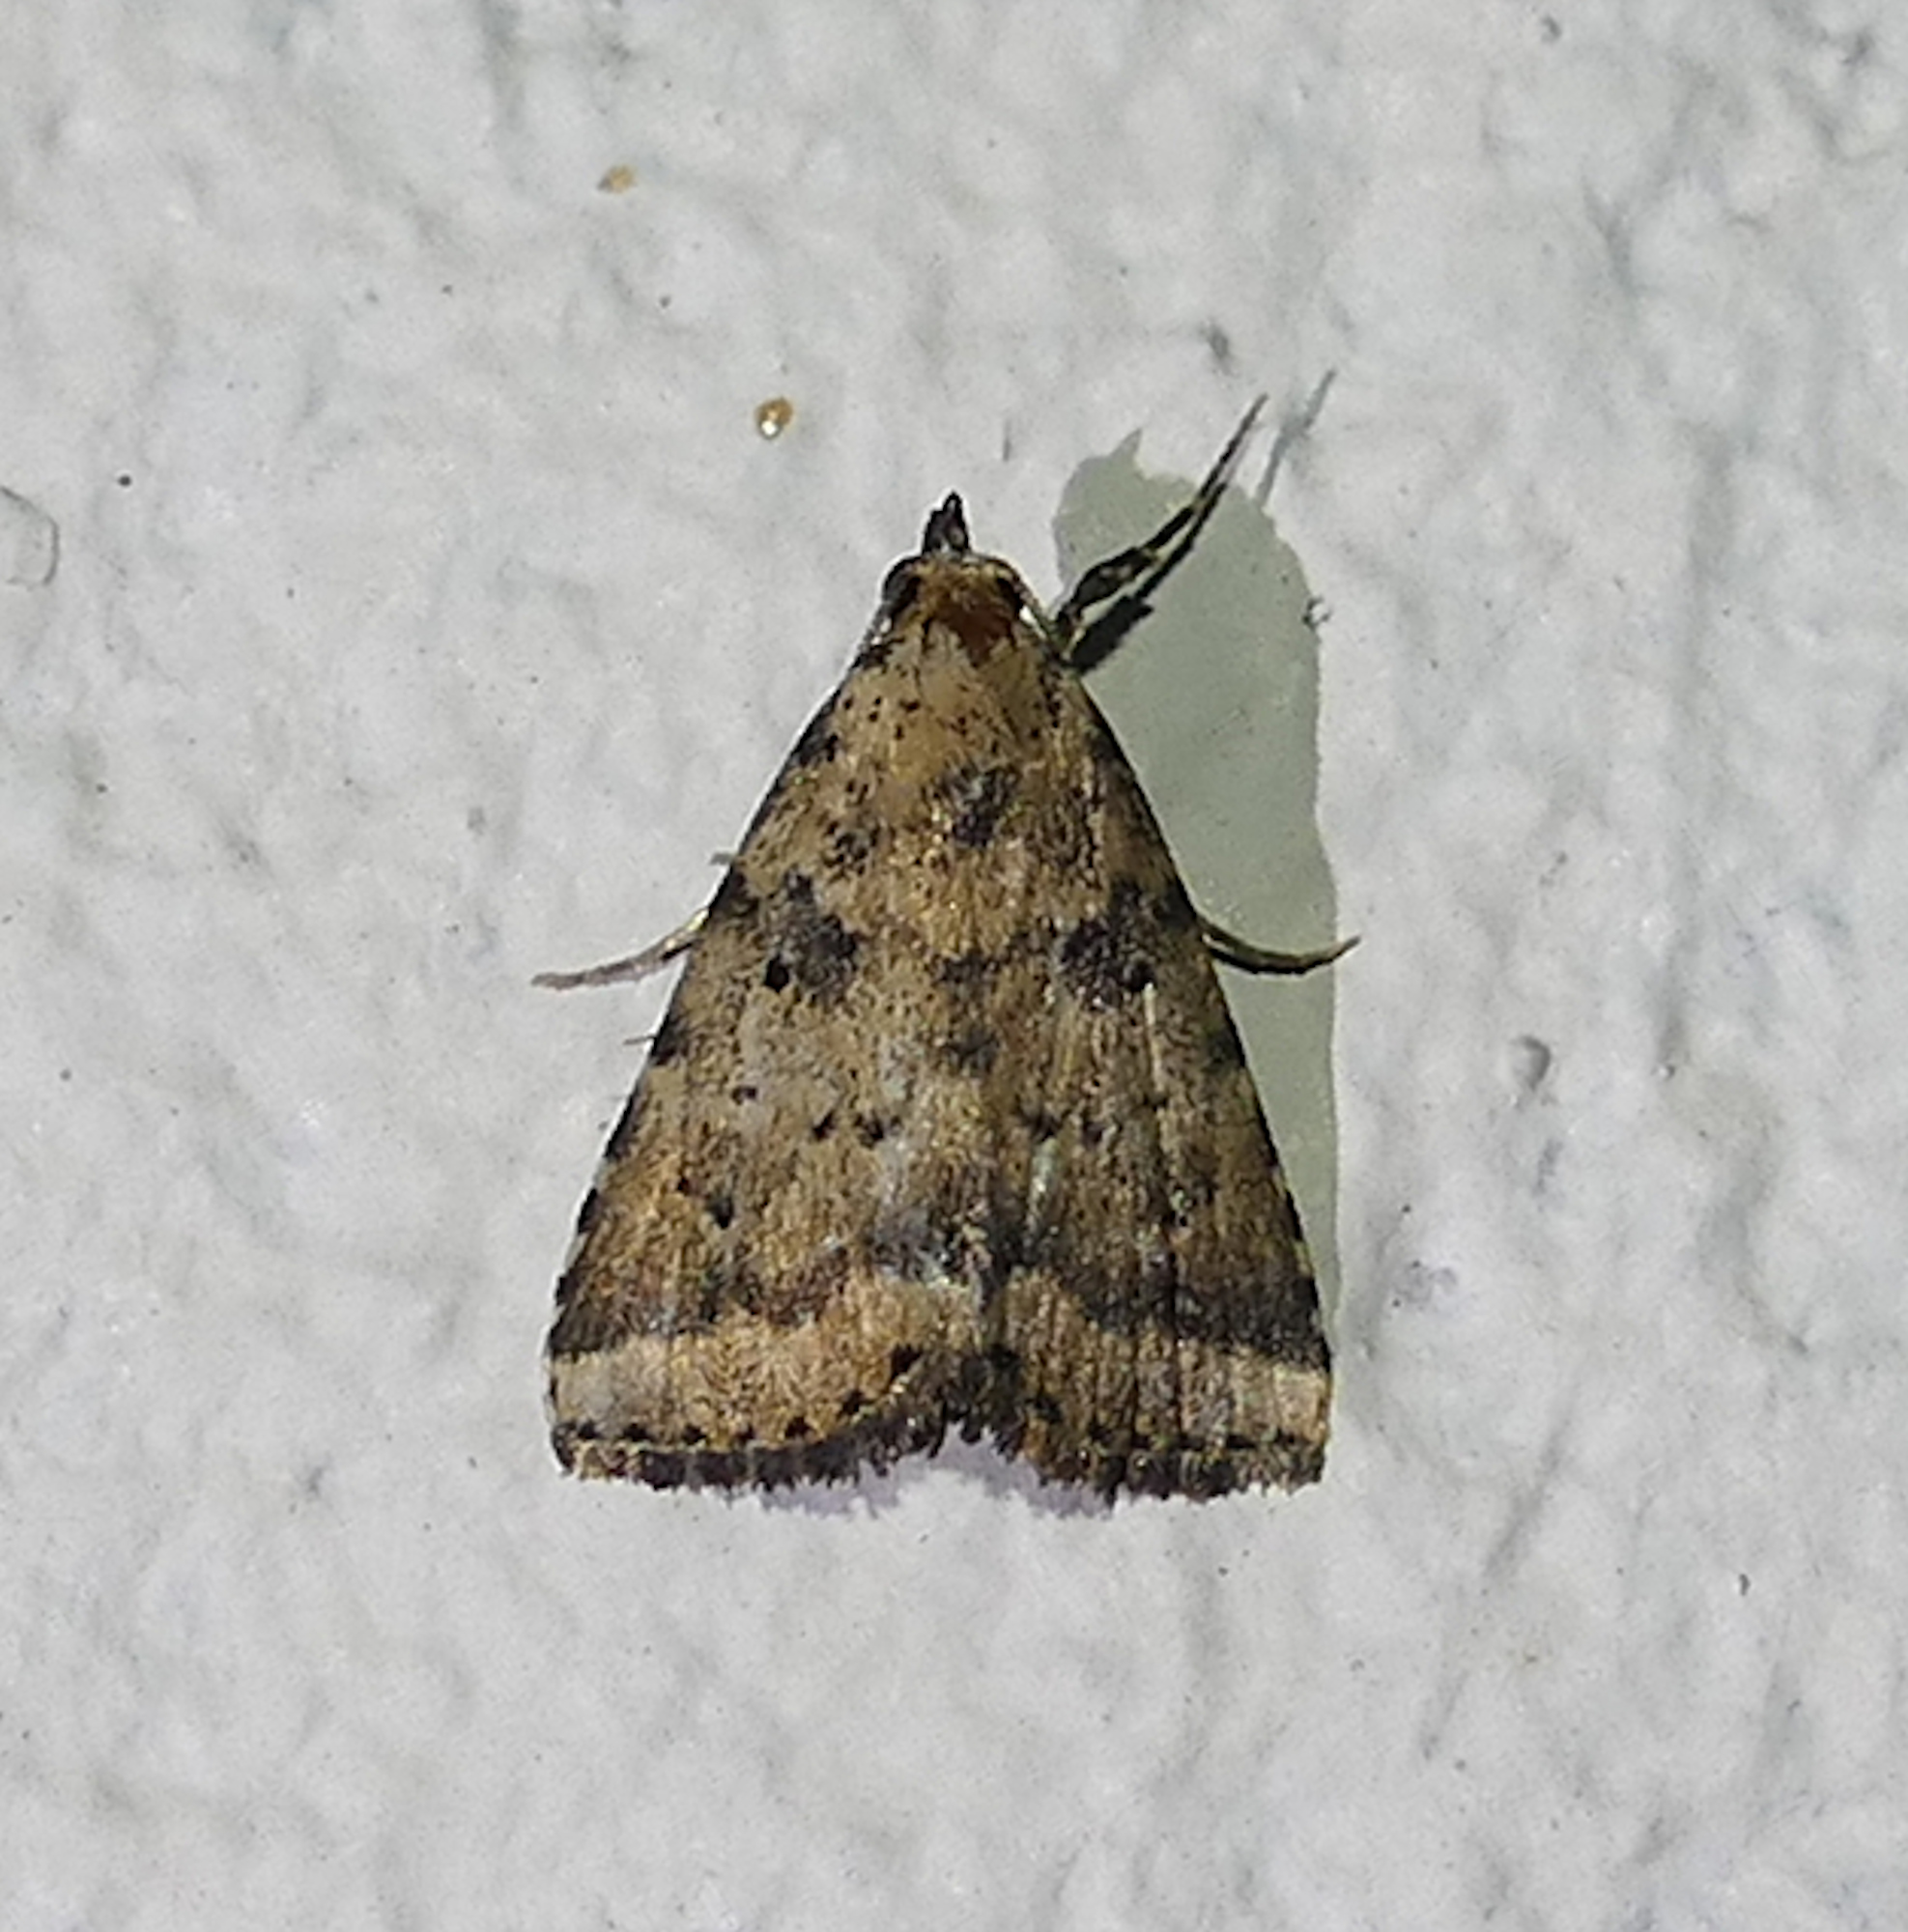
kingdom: Animalia
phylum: Arthropoda
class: Insecta
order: Lepidoptera
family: Erebidae
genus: Arugisa
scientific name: Arugisa lutea
